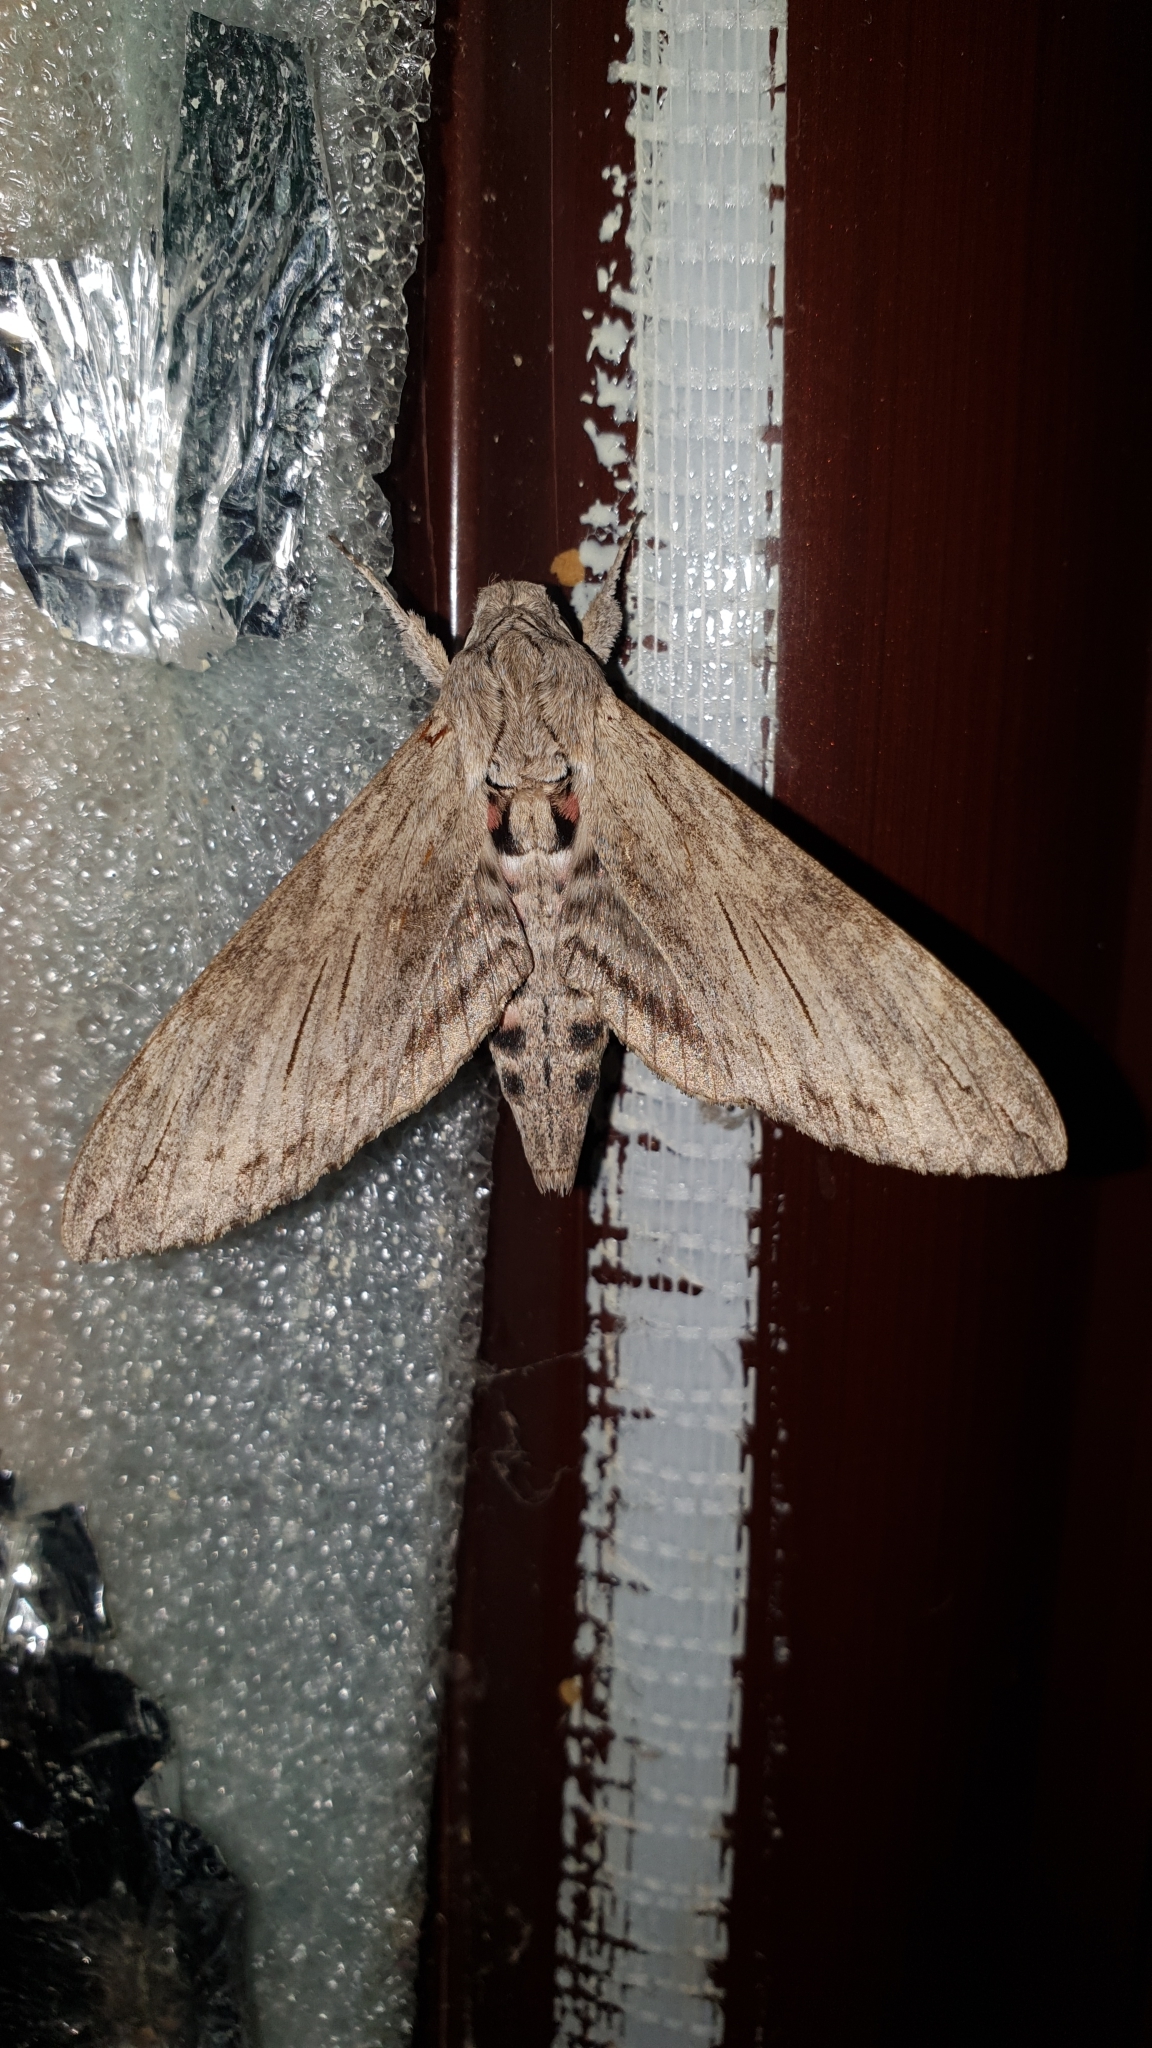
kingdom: Animalia
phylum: Arthropoda
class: Insecta
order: Lepidoptera
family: Sphingidae
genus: Agrius
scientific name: Agrius convolvuli
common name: Convolvulus hawkmoth
